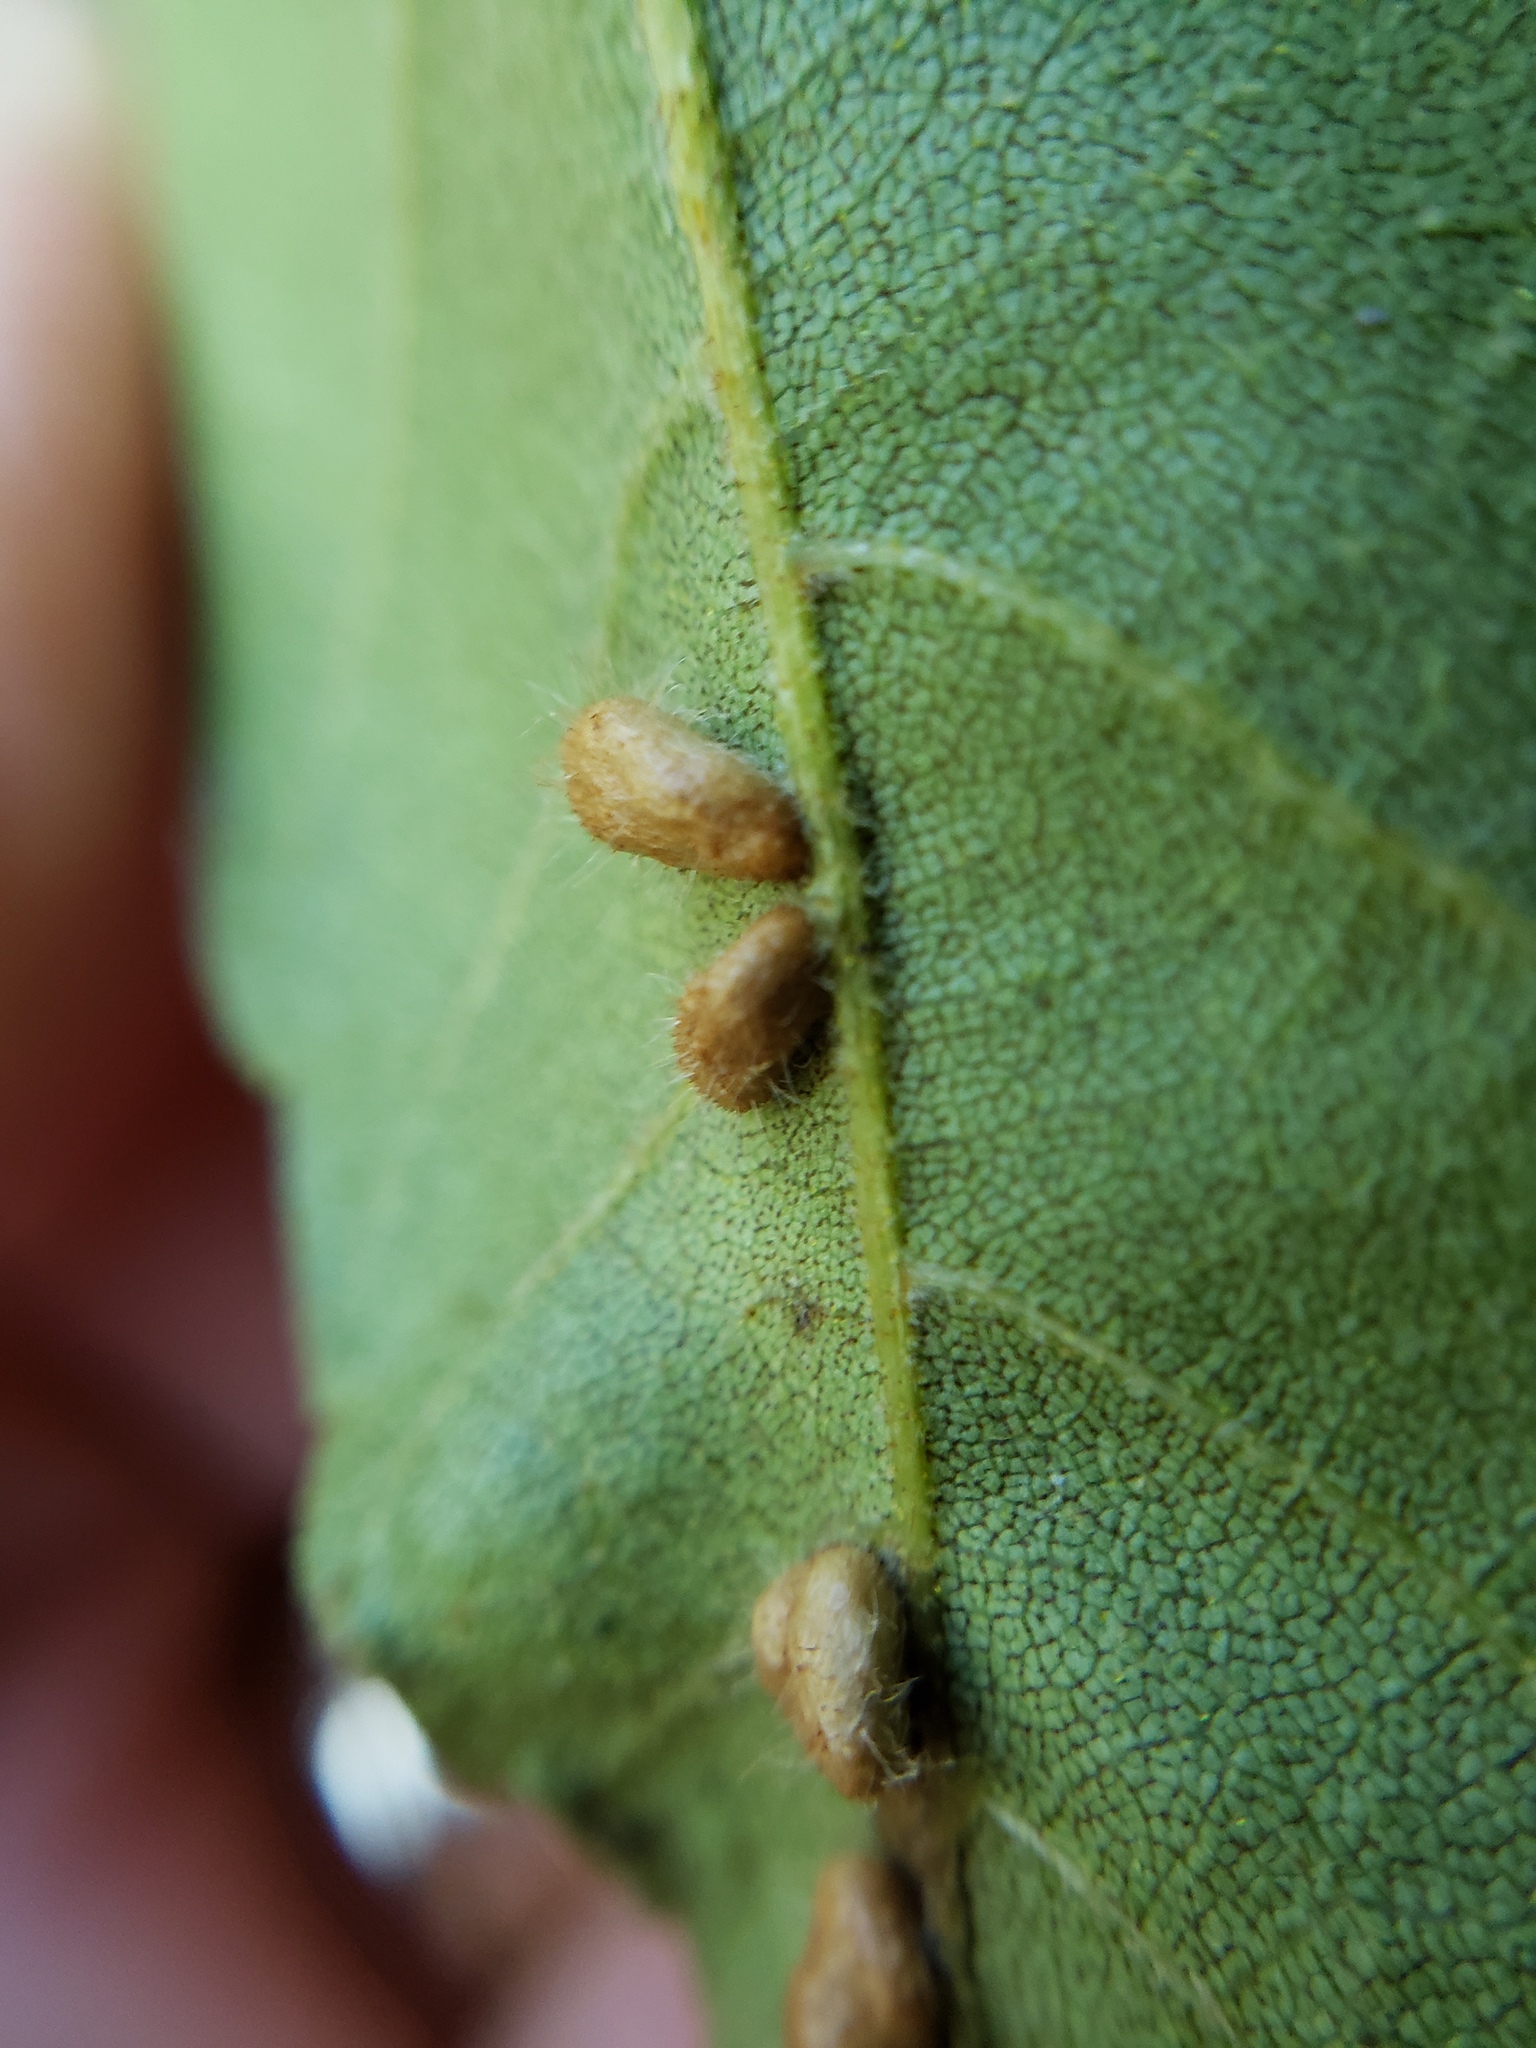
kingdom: Animalia
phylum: Arthropoda
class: Insecta
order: Diptera
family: Cecidomyiidae
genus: Contarinia
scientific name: Contarinia cucumata
